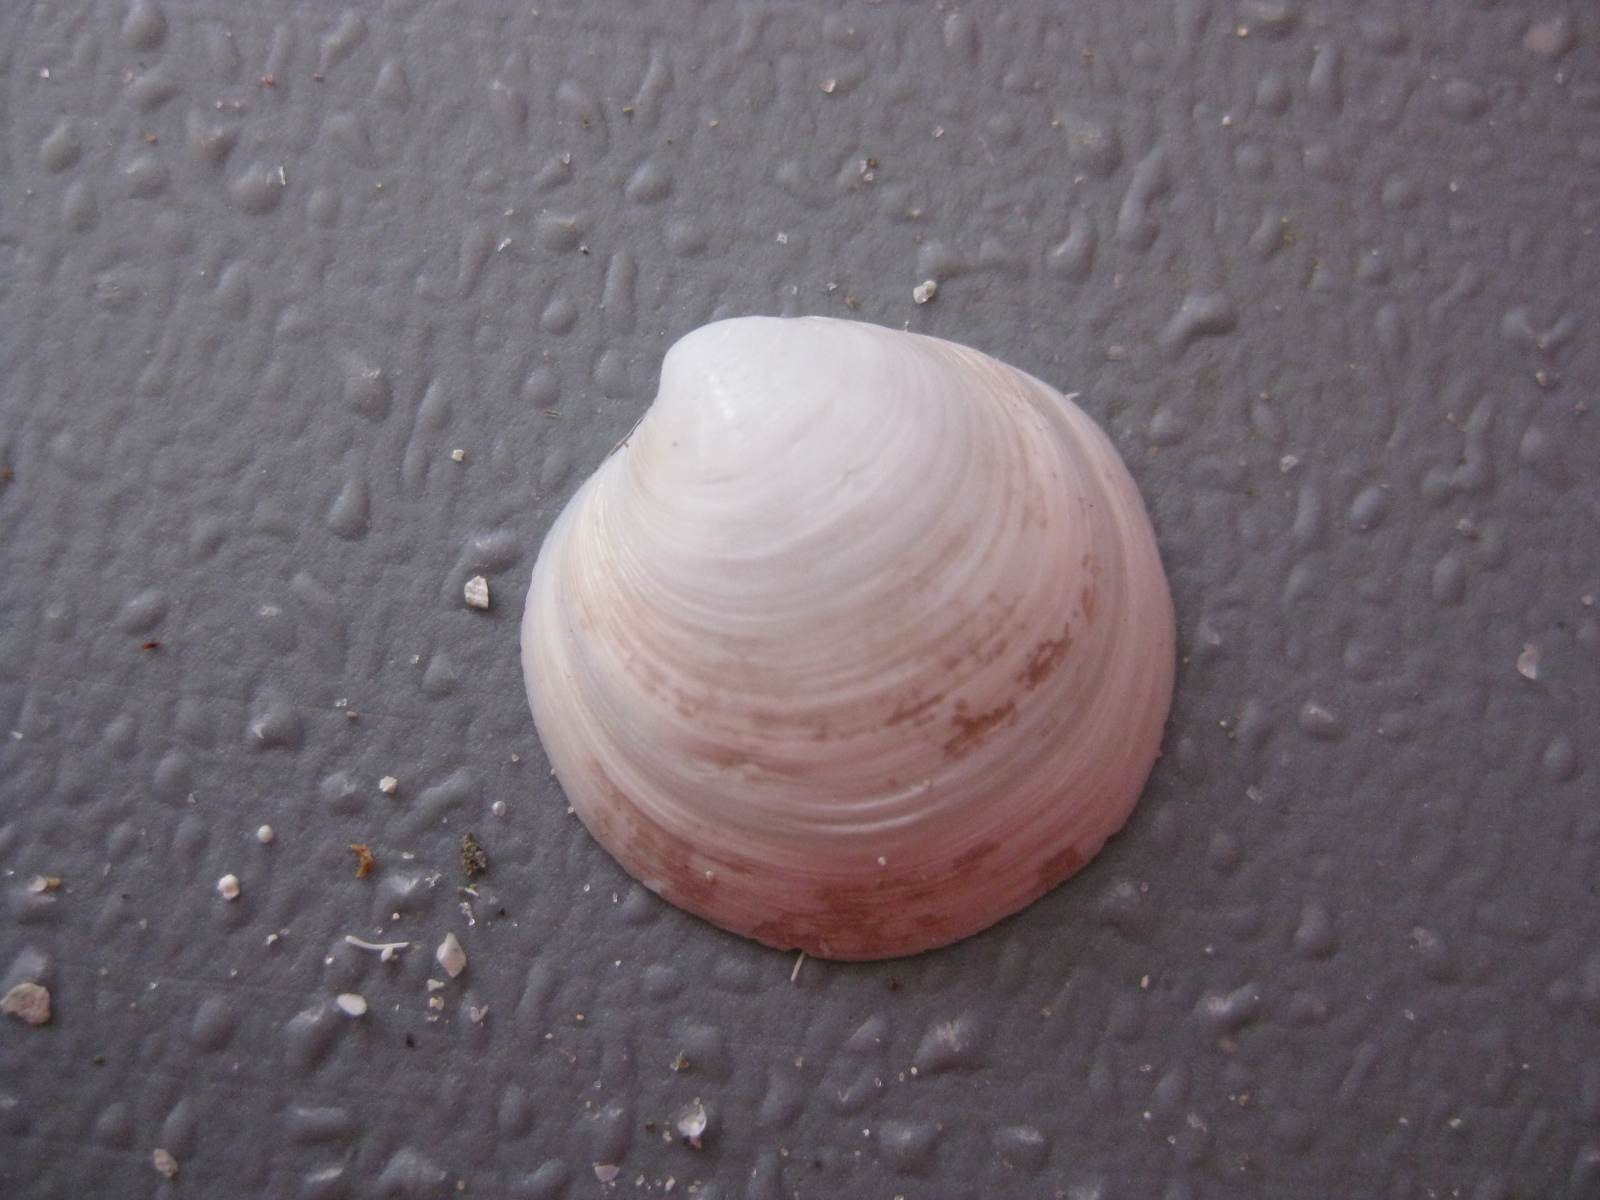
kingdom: Animalia
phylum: Mollusca
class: Bivalvia
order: Venerida
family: Ungulinidae
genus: Zemysia
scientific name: Zemysia zelandica
